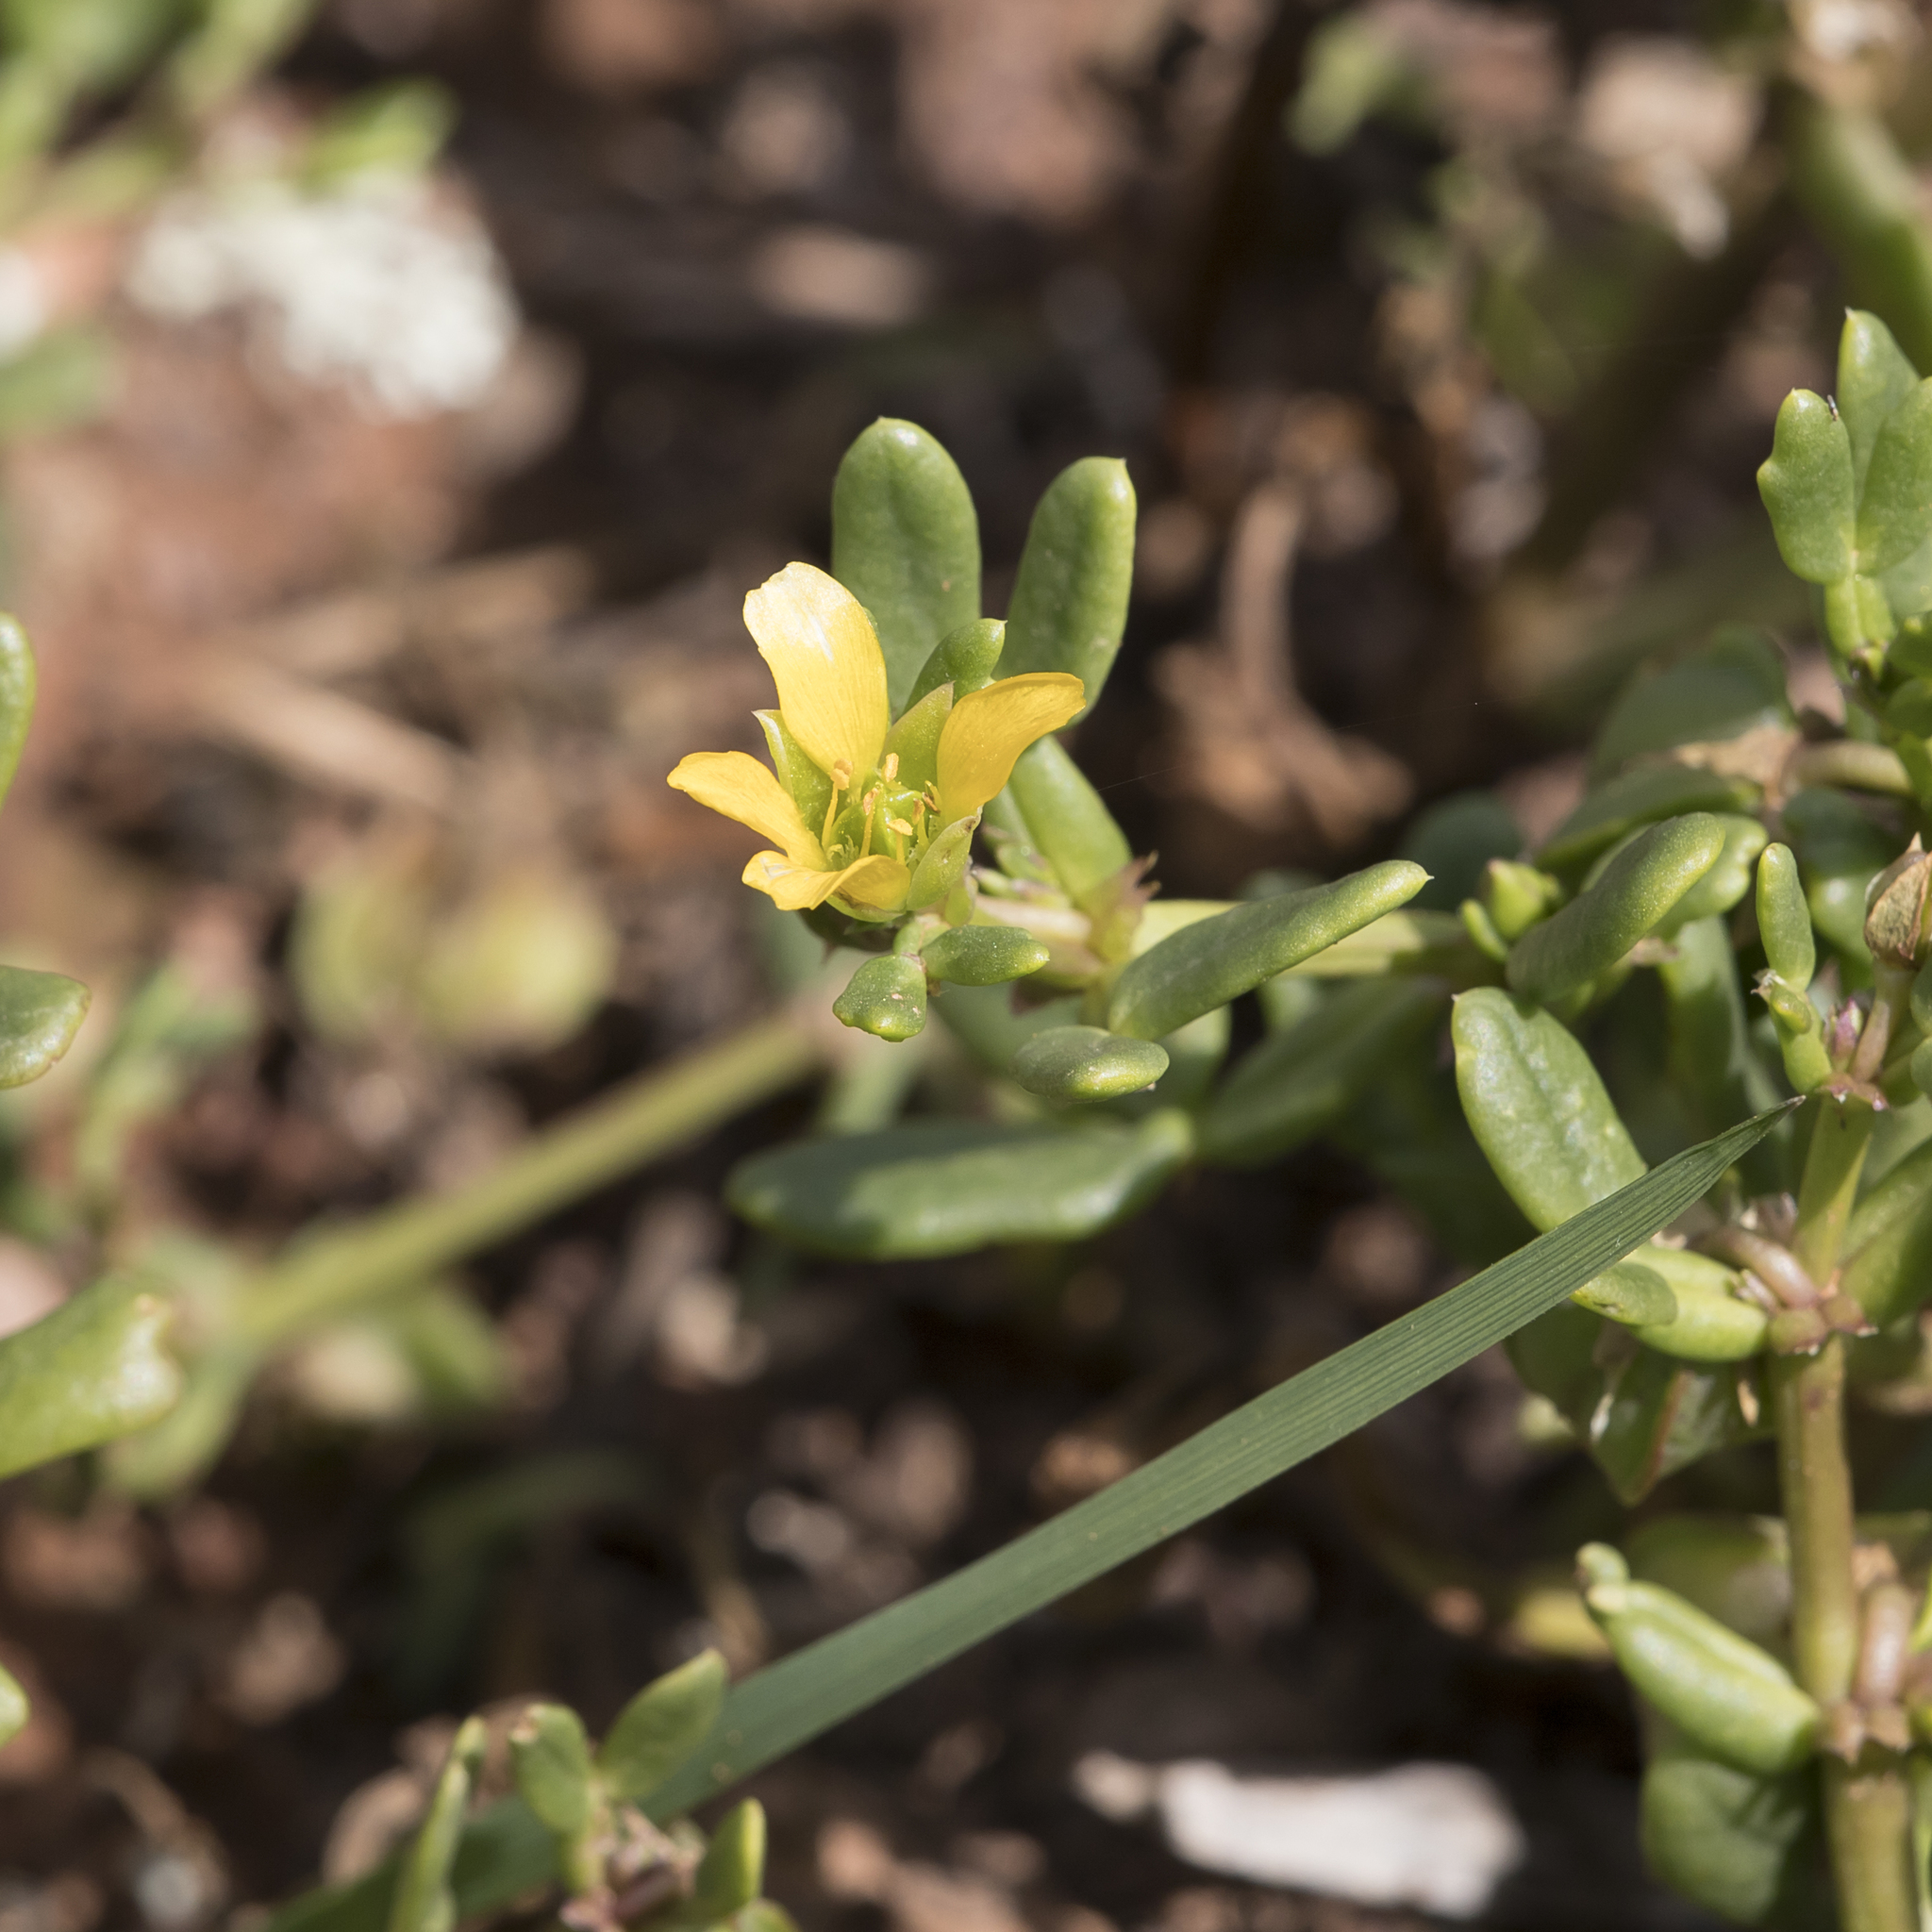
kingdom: Plantae
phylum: Tracheophyta
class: Magnoliopsida
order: Zygophyllales
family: Zygophyllaceae
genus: Roepera
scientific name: Roepera crenata
